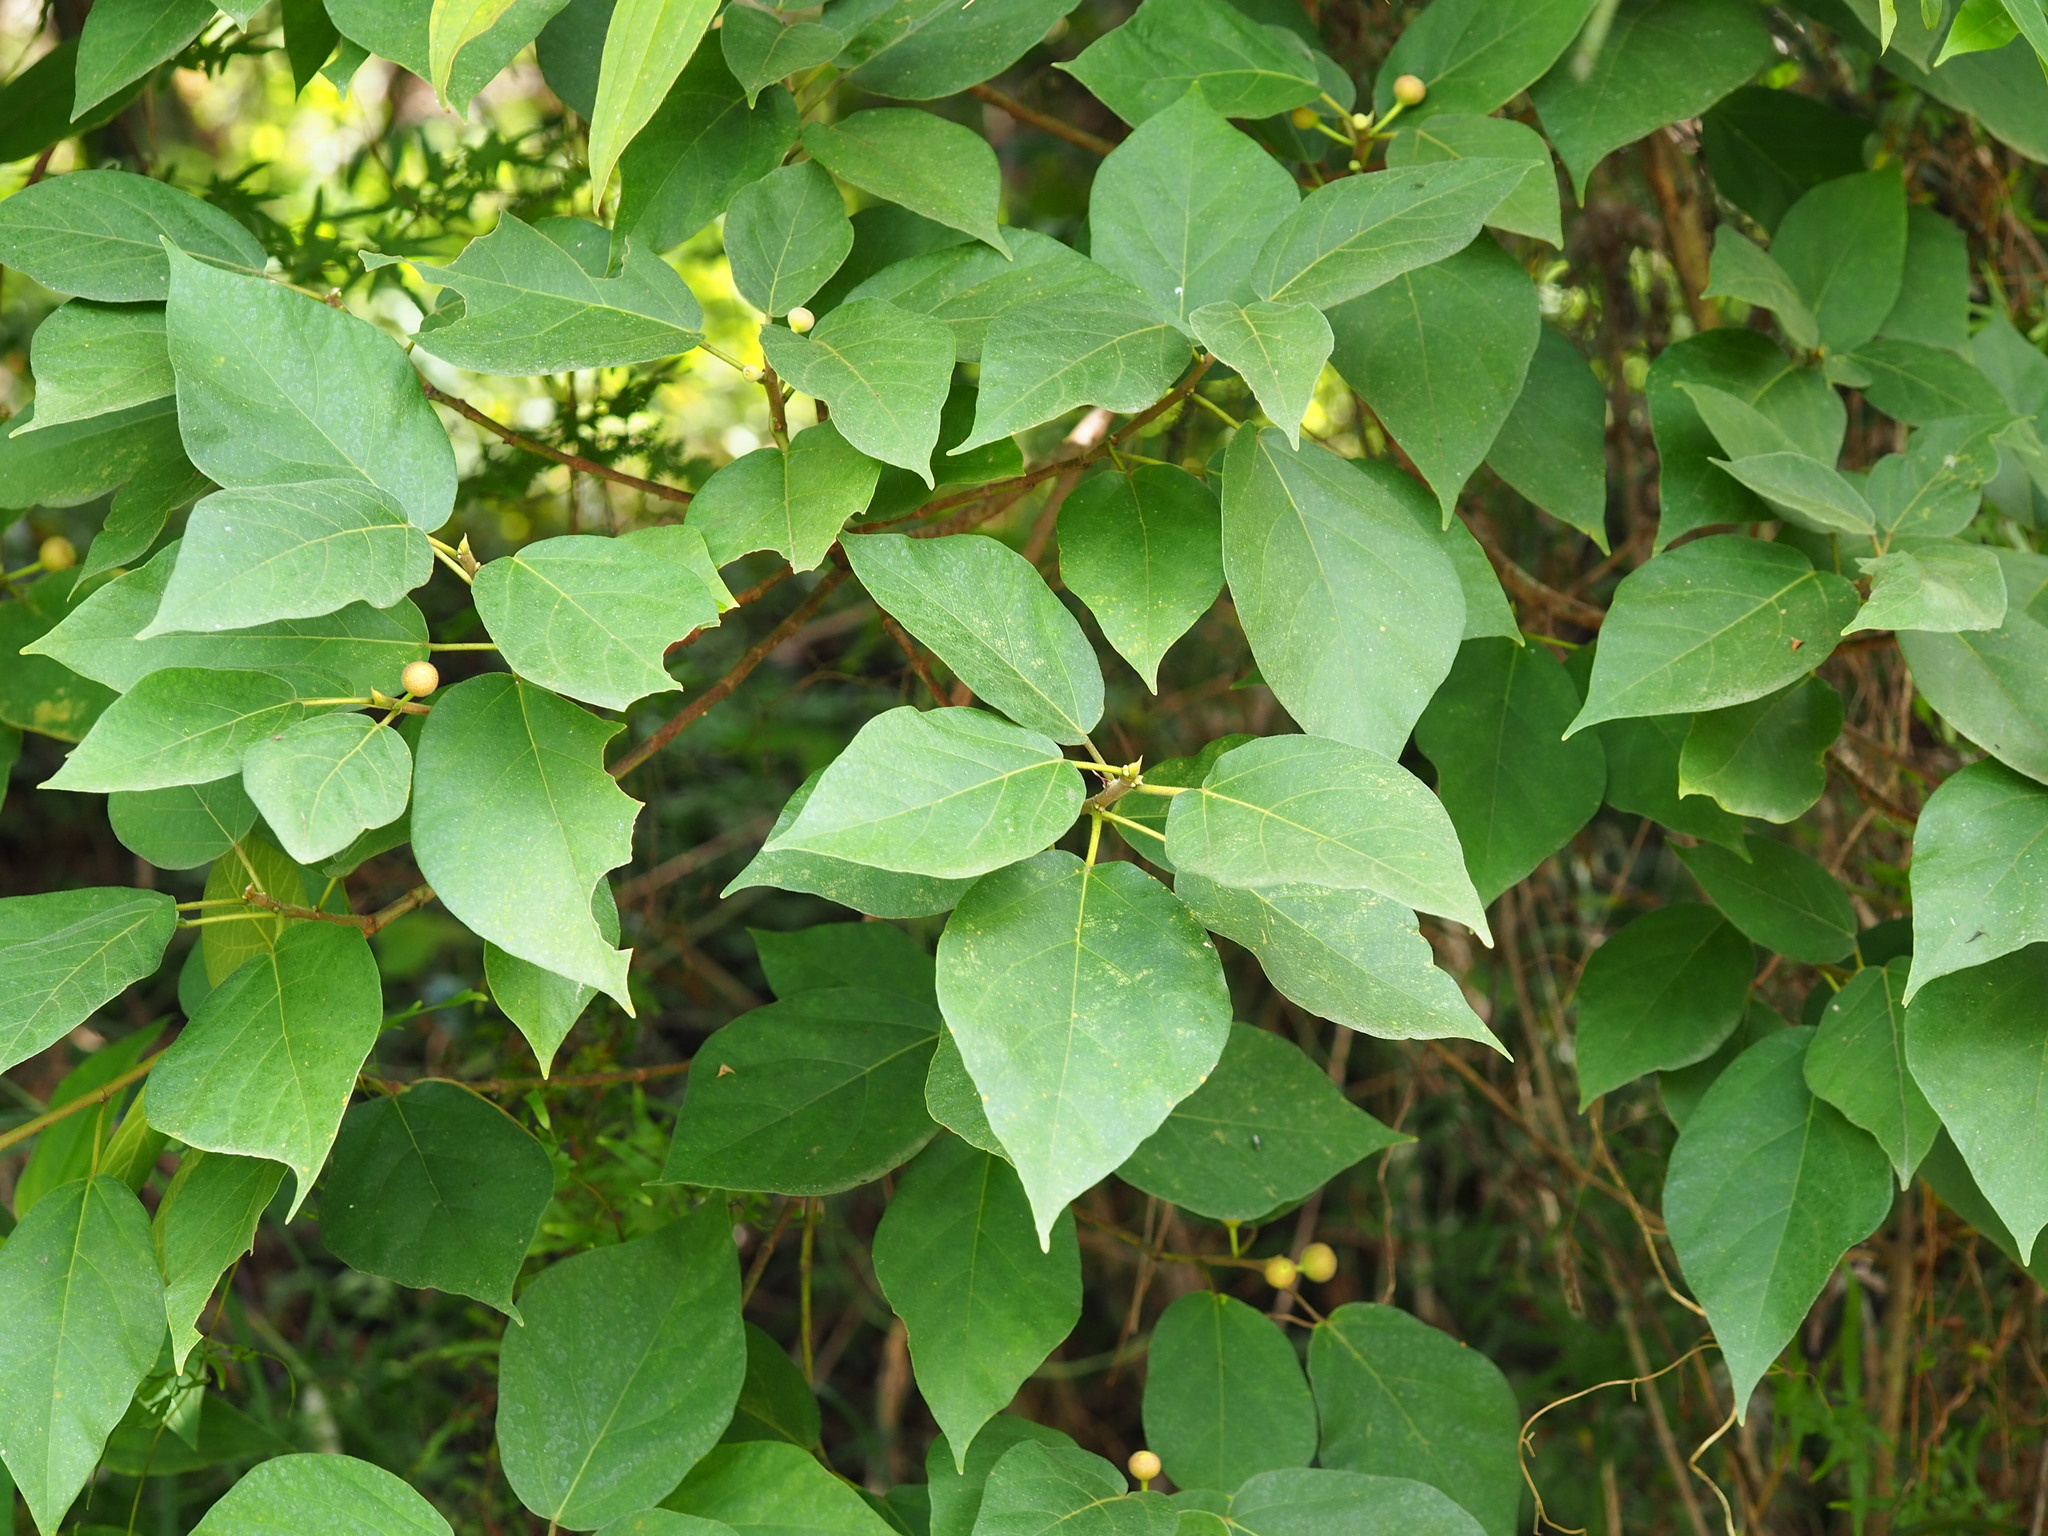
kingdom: Plantae
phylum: Tracheophyta
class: Magnoliopsida
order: Rosales
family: Moraceae
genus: Ficus
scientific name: Ficus erecta
